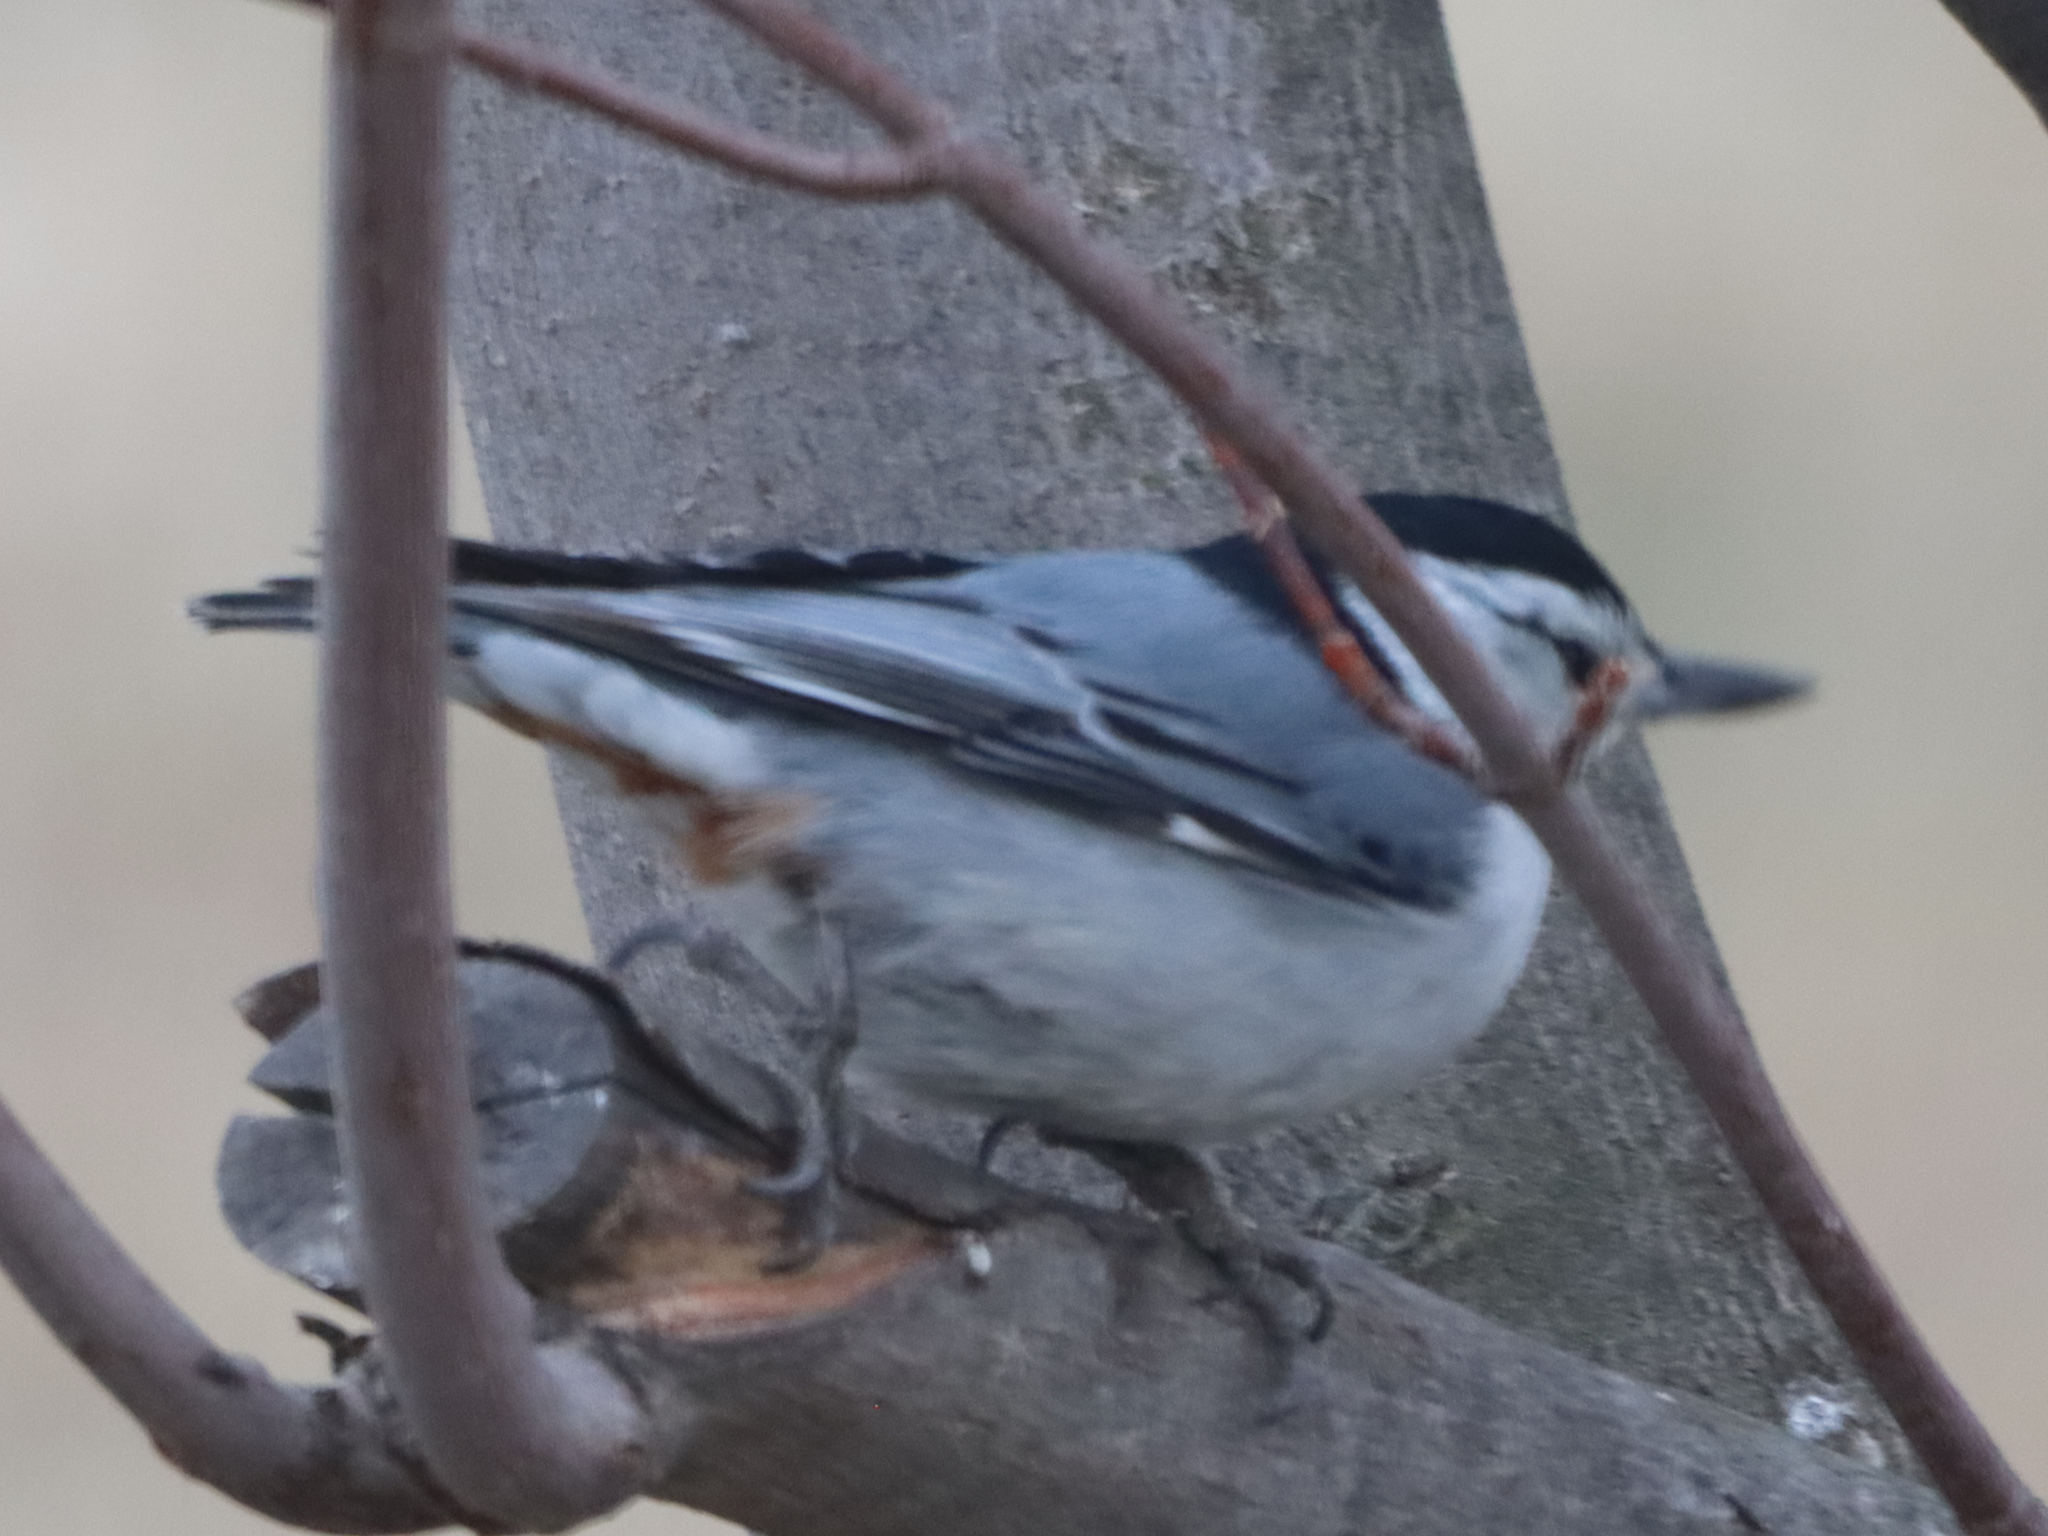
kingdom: Animalia
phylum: Chordata
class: Aves
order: Passeriformes
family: Sittidae
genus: Sitta
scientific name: Sitta carolinensis
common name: White-breasted nuthatch
